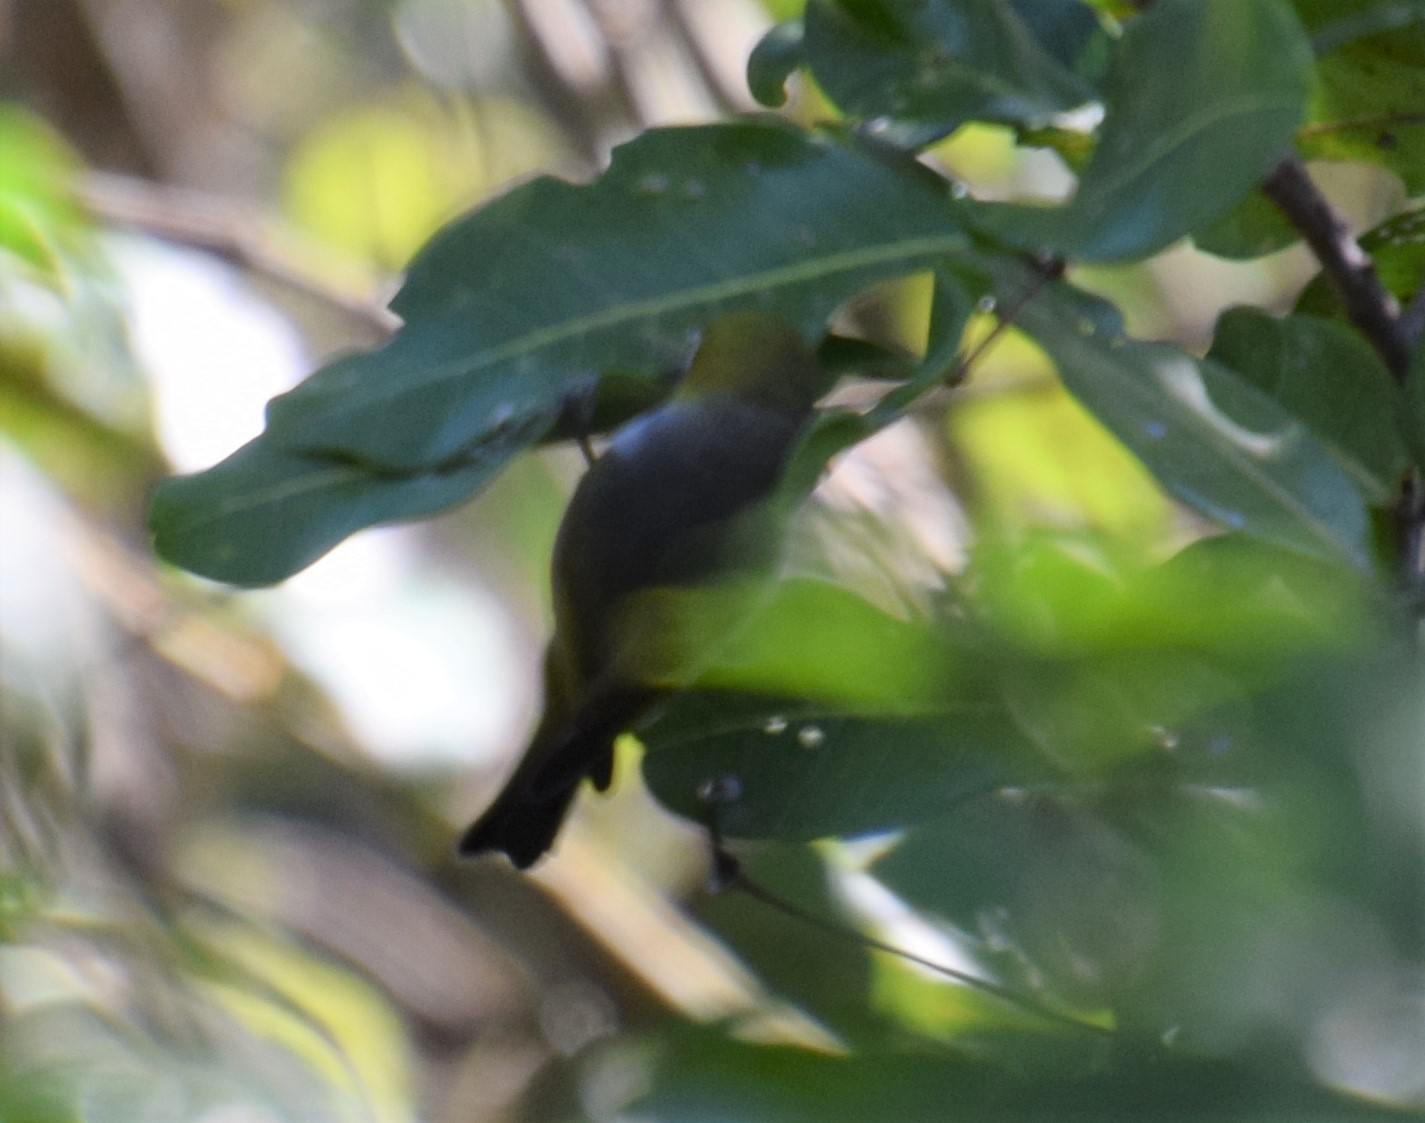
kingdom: Animalia
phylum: Chordata
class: Aves
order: Passeriformes
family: Zosteropidae
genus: Zosterops
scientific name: Zosterops lateralis
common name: Silvereye
